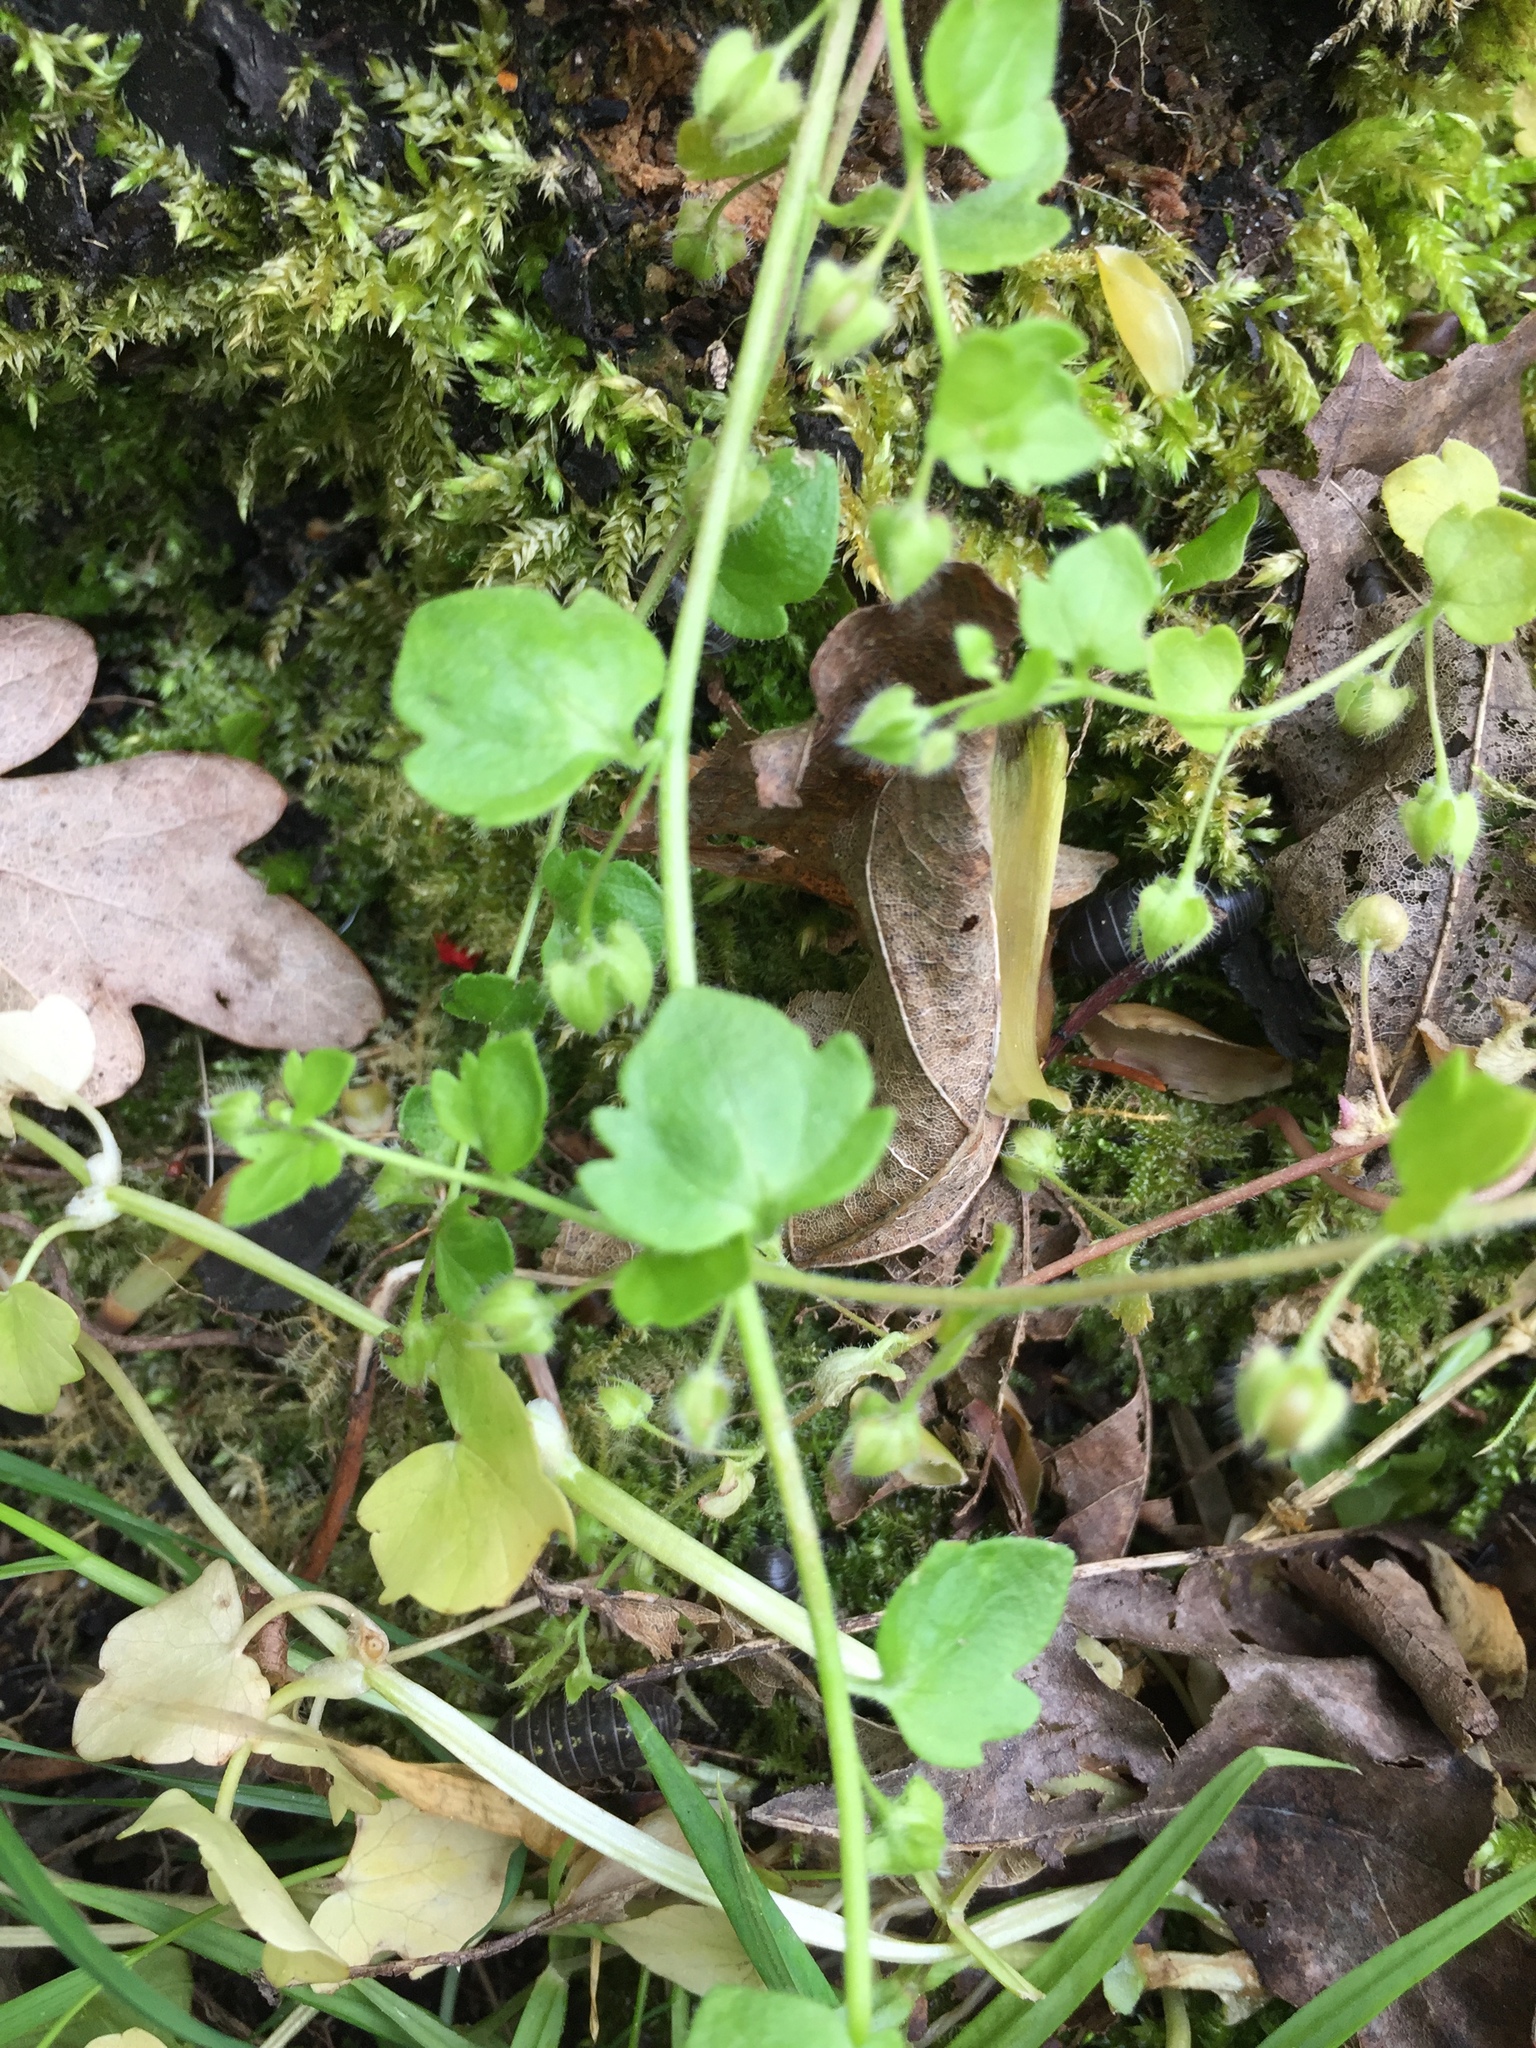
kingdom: Plantae
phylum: Tracheophyta
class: Magnoliopsida
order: Lamiales
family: Plantaginaceae
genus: Veronica
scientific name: Veronica hederifolia
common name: Ivy-leaved speedwell
